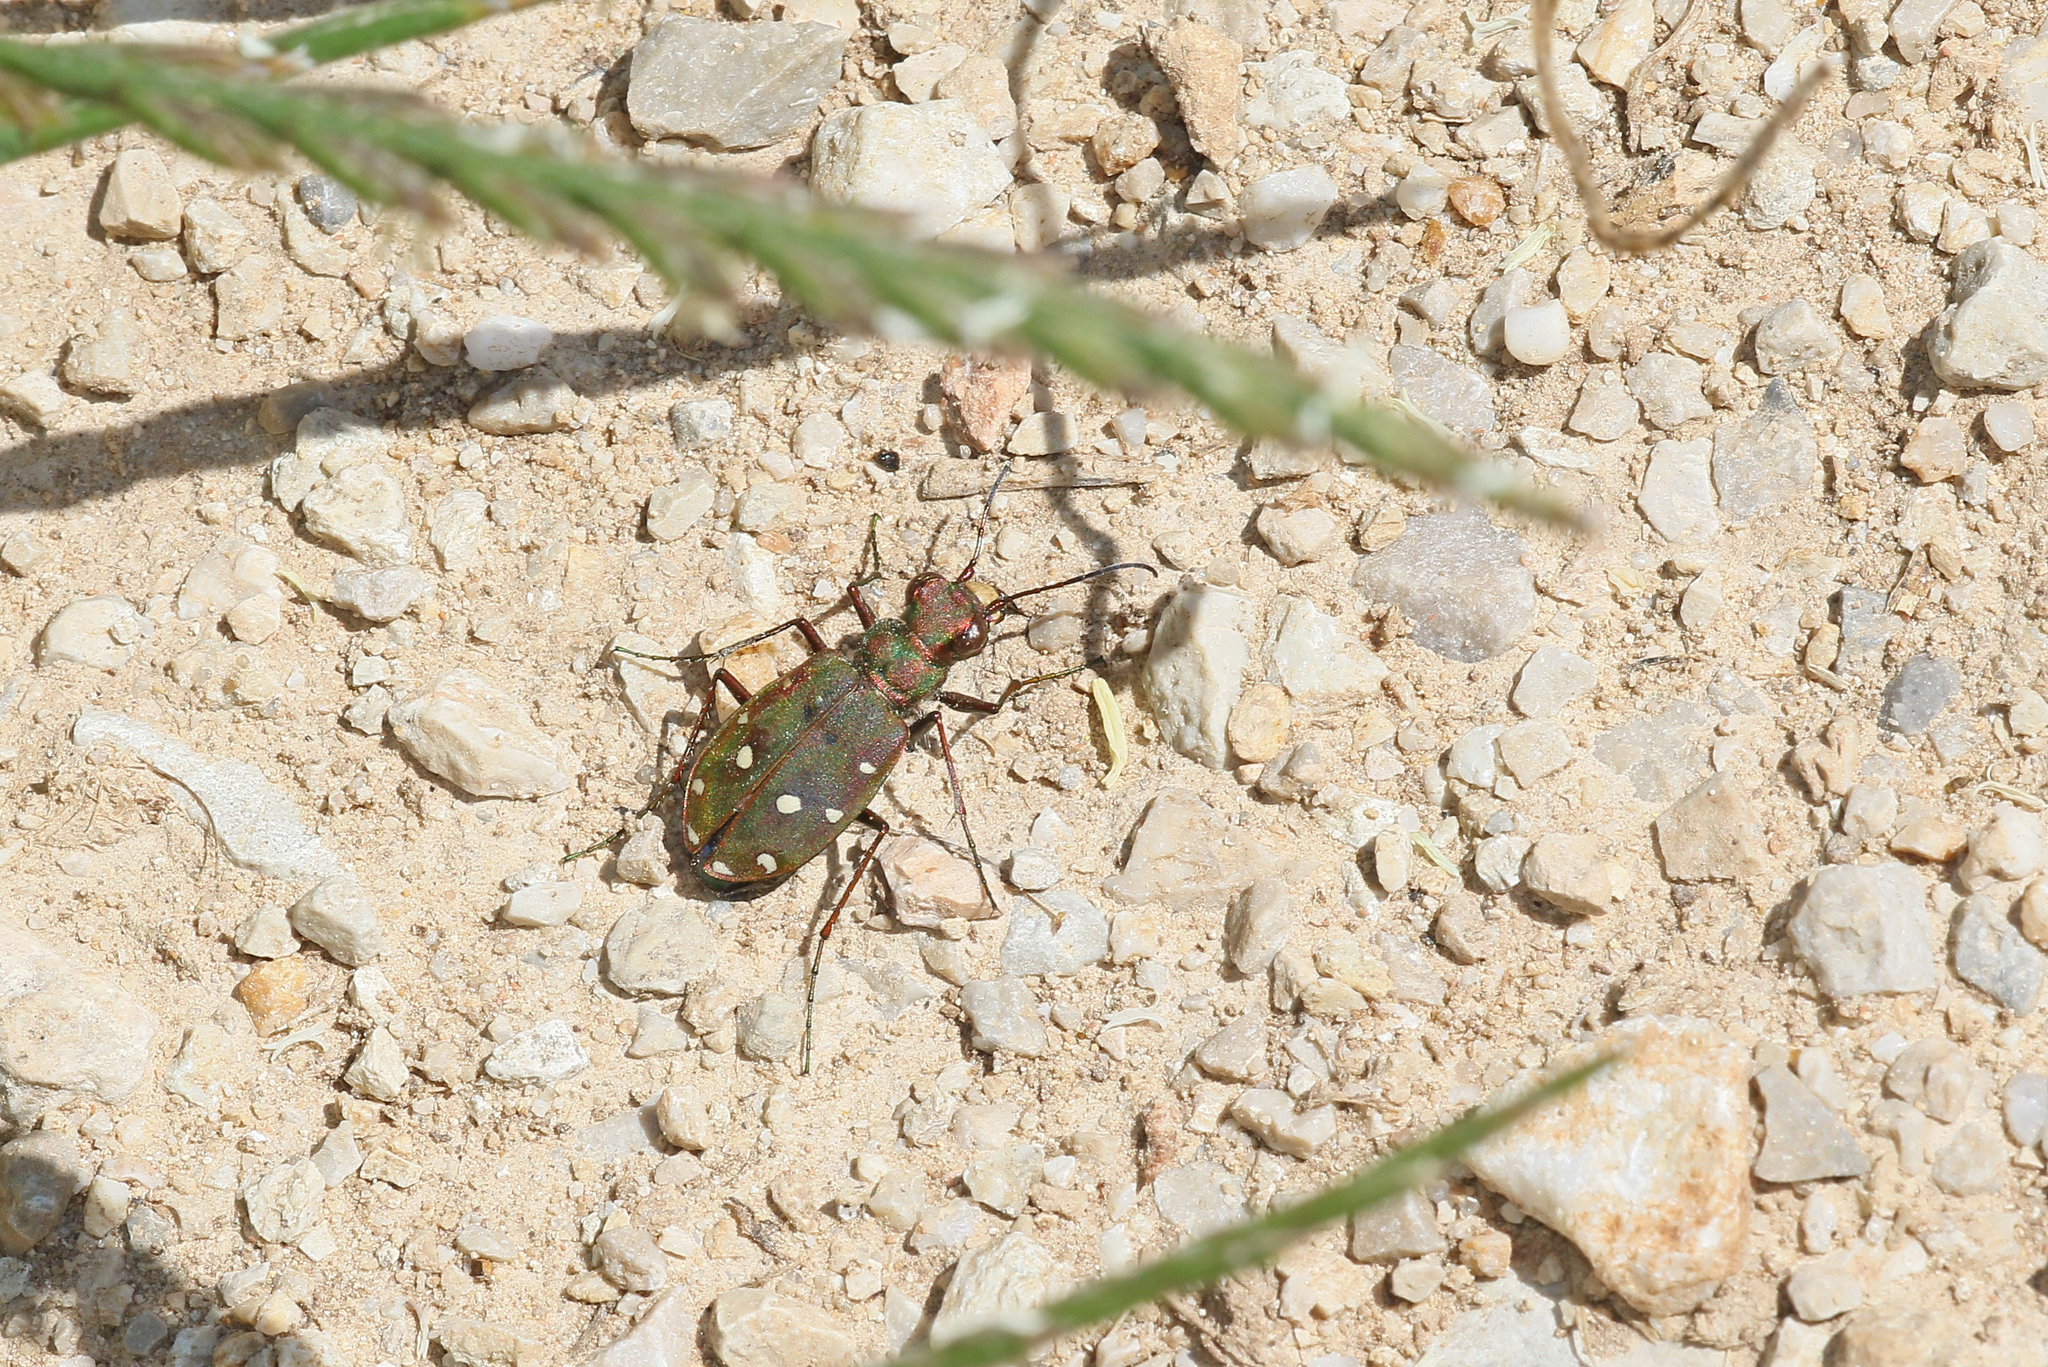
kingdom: Animalia
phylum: Arthropoda
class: Insecta
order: Coleoptera
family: Carabidae
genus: Cicindela
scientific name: Cicindela maroccana
